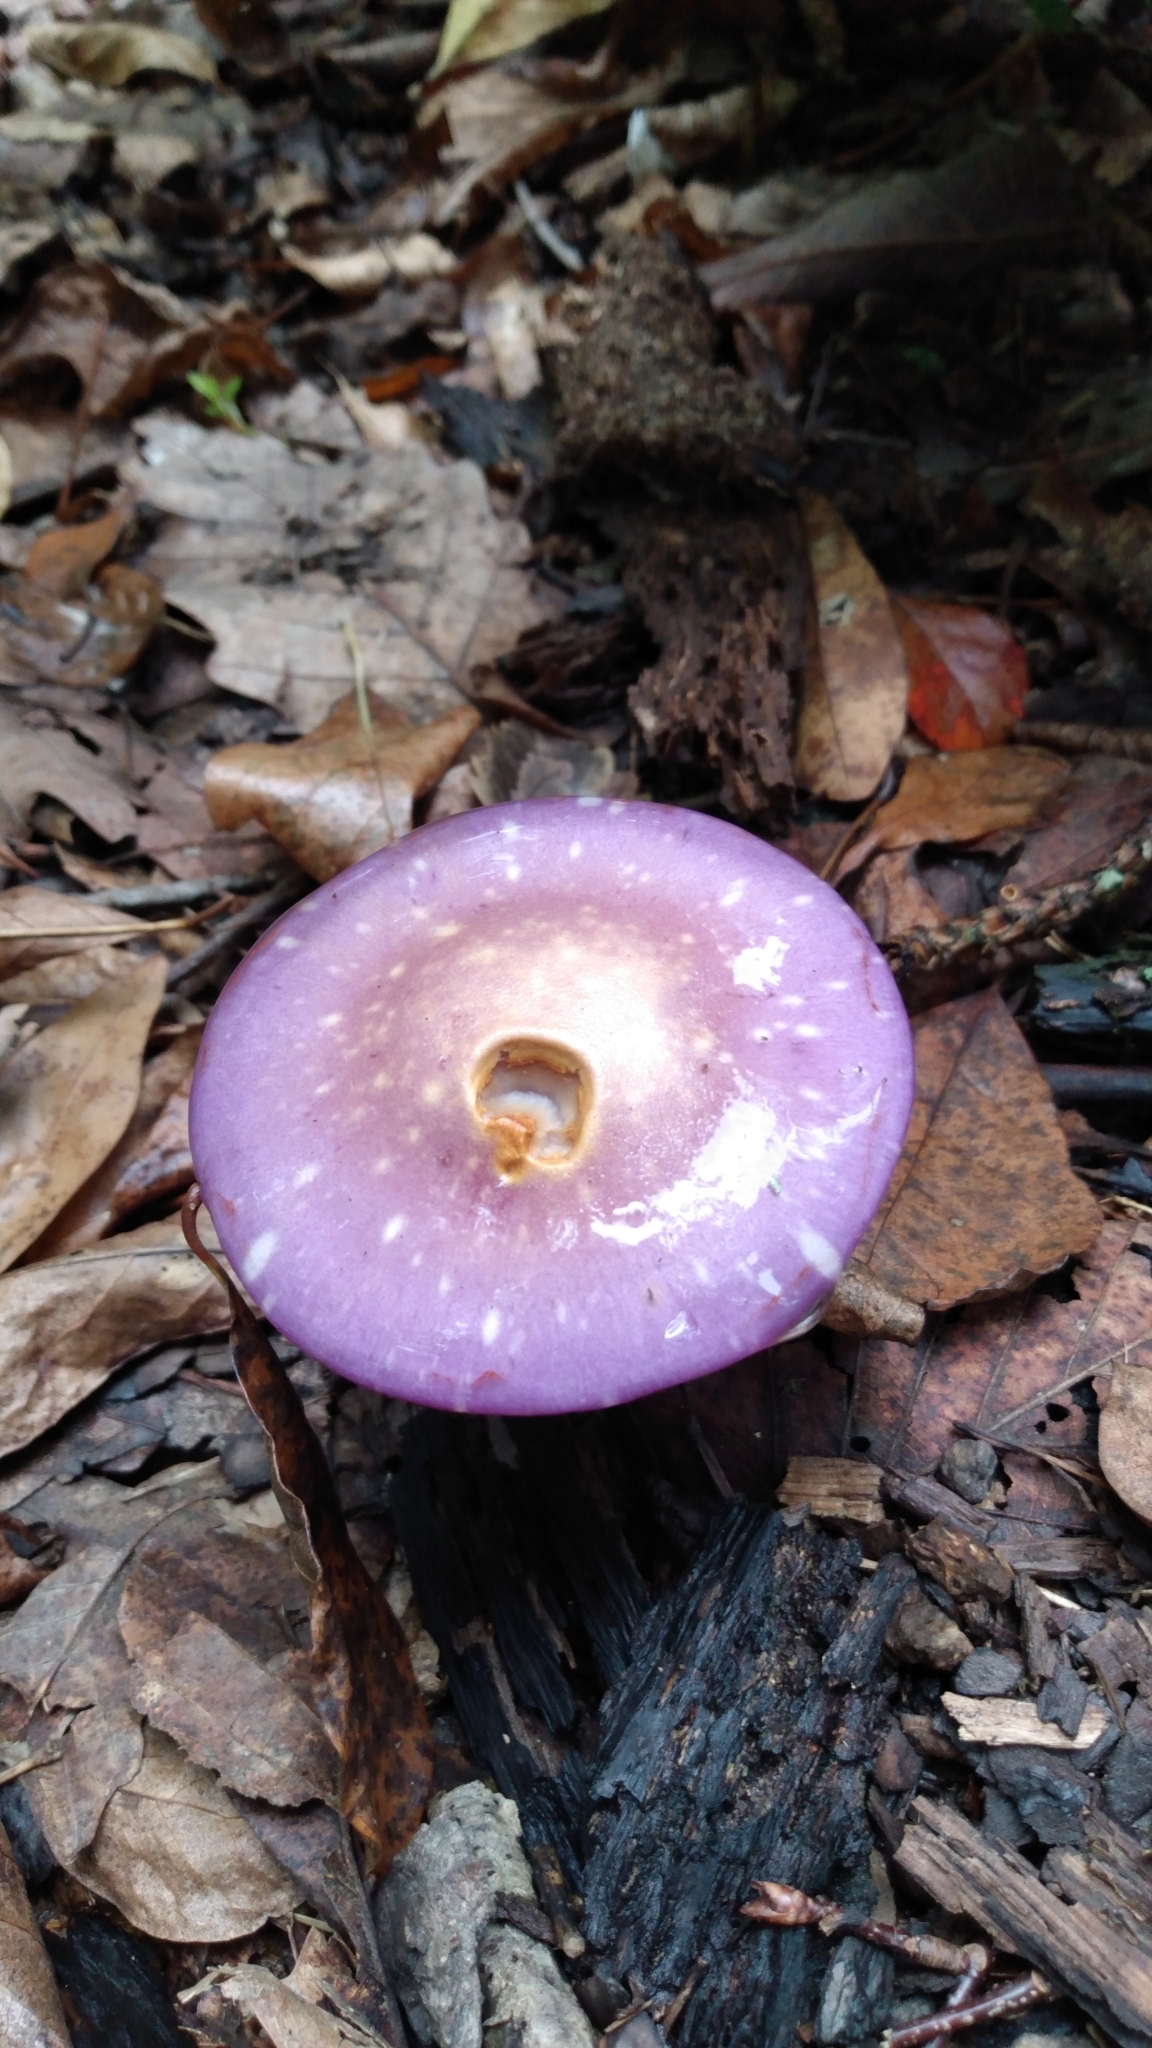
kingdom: Fungi
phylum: Basidiomycota
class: Agaricomycetes
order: Agaricales
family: Cortinariaceae
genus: Cortinarius
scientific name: Cortinarius iodes
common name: Viscid violet cort
